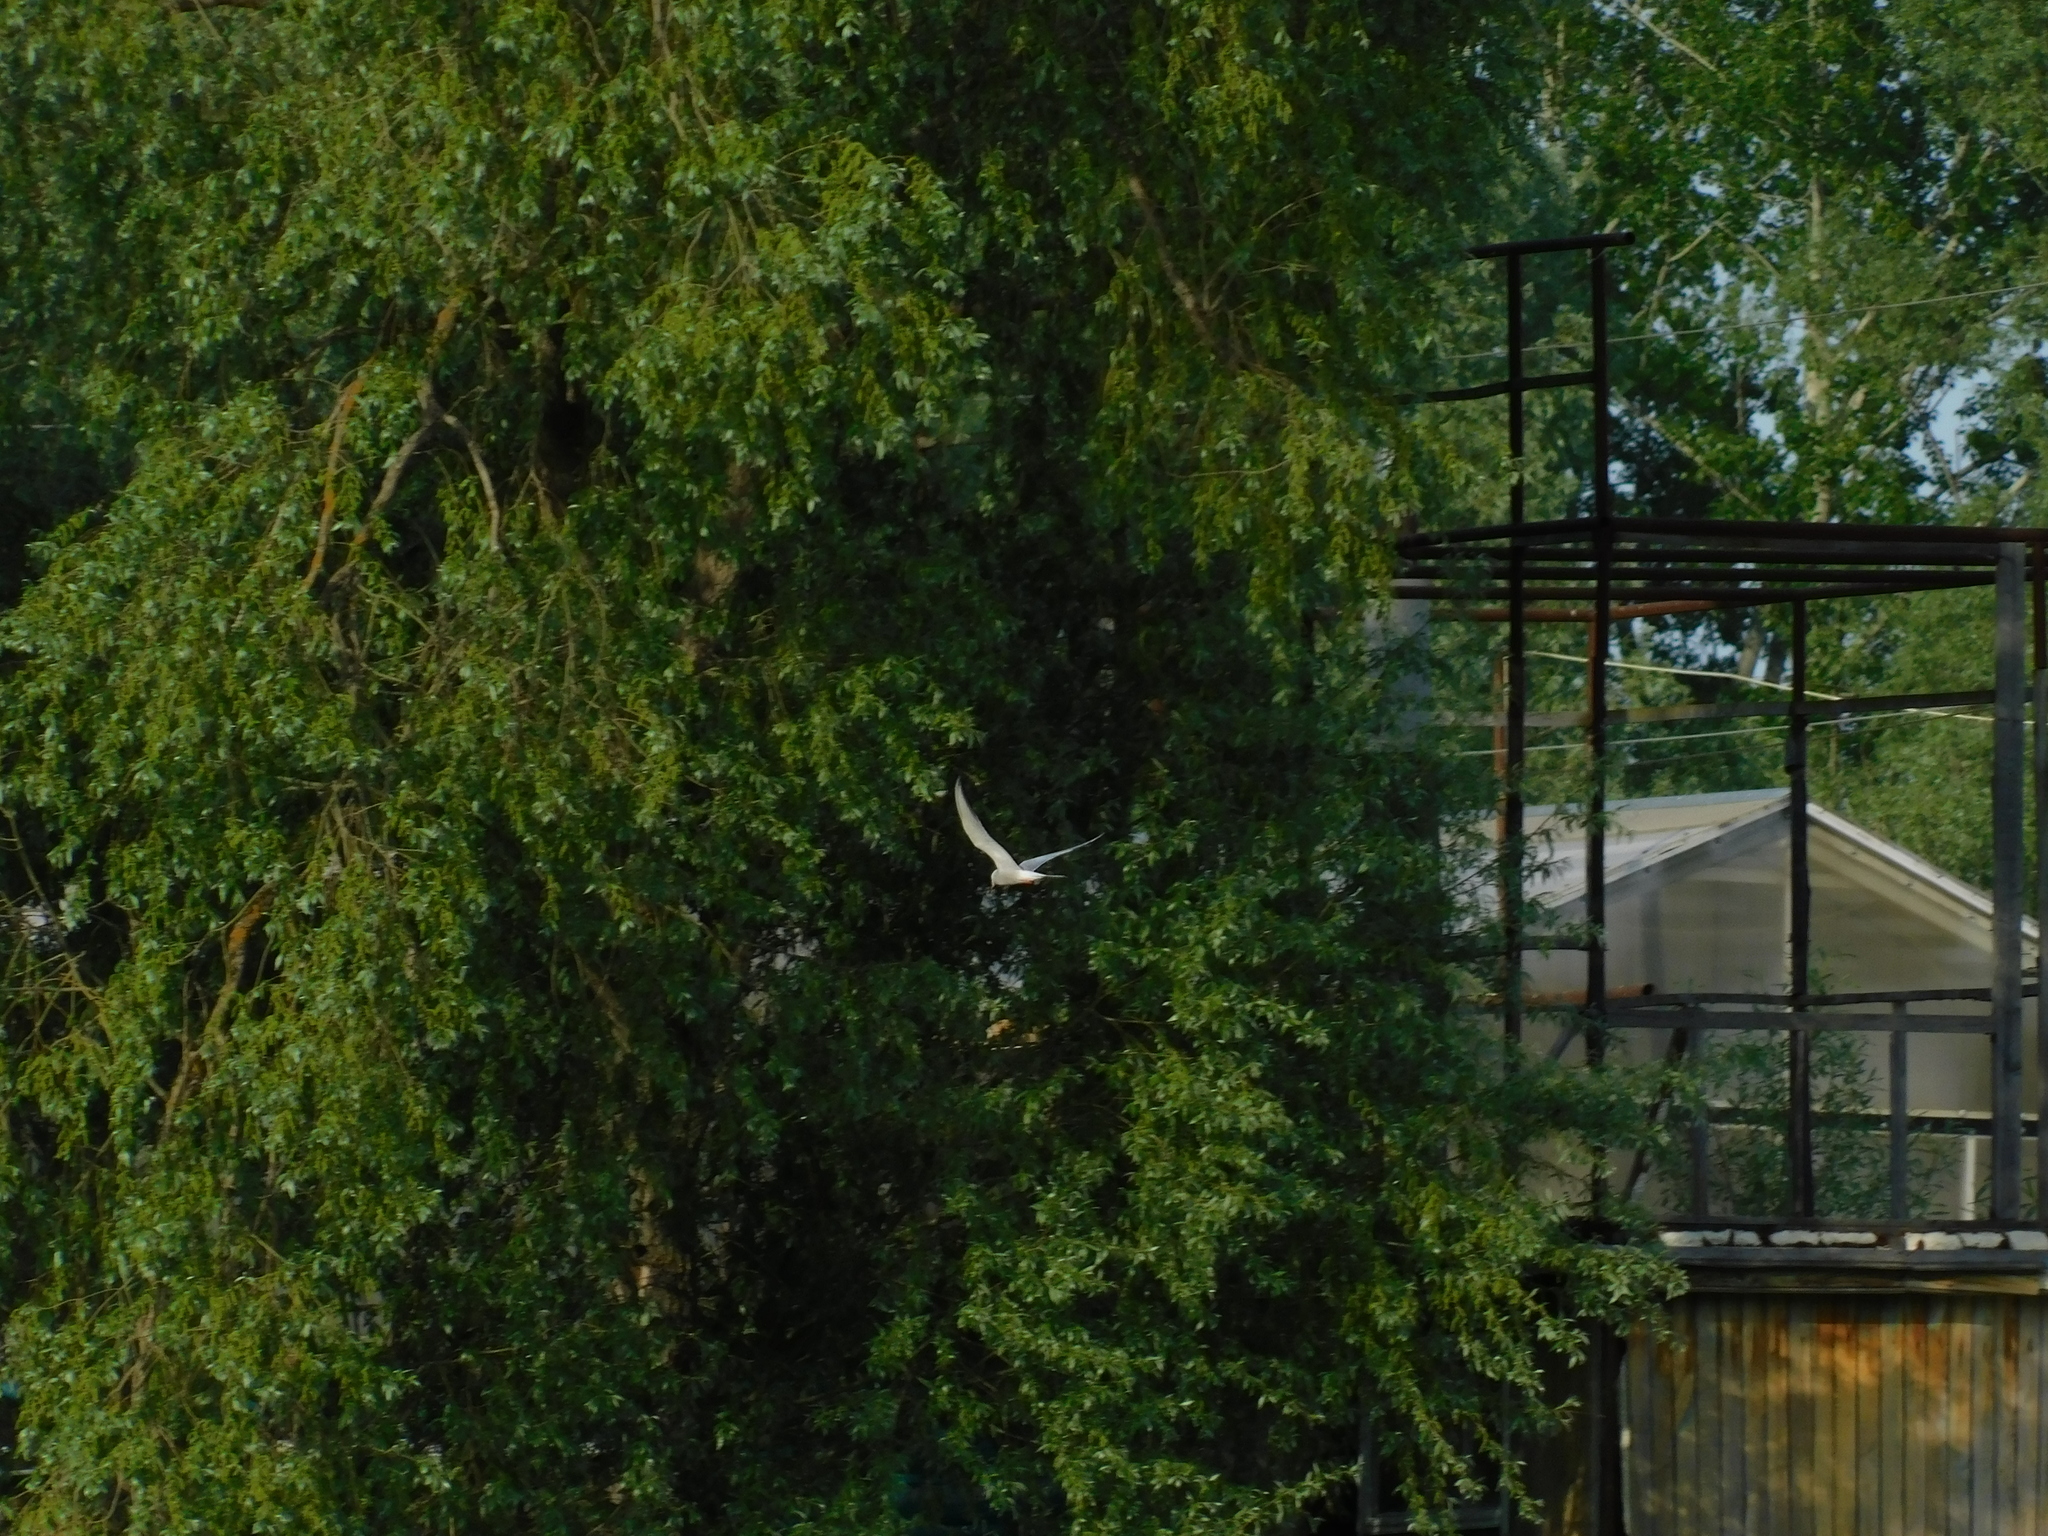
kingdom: Animalia
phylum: Chordata
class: Aves
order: Charadriiformes
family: Laridae
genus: Sterna
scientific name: Sterna hirundo
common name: Common tern
